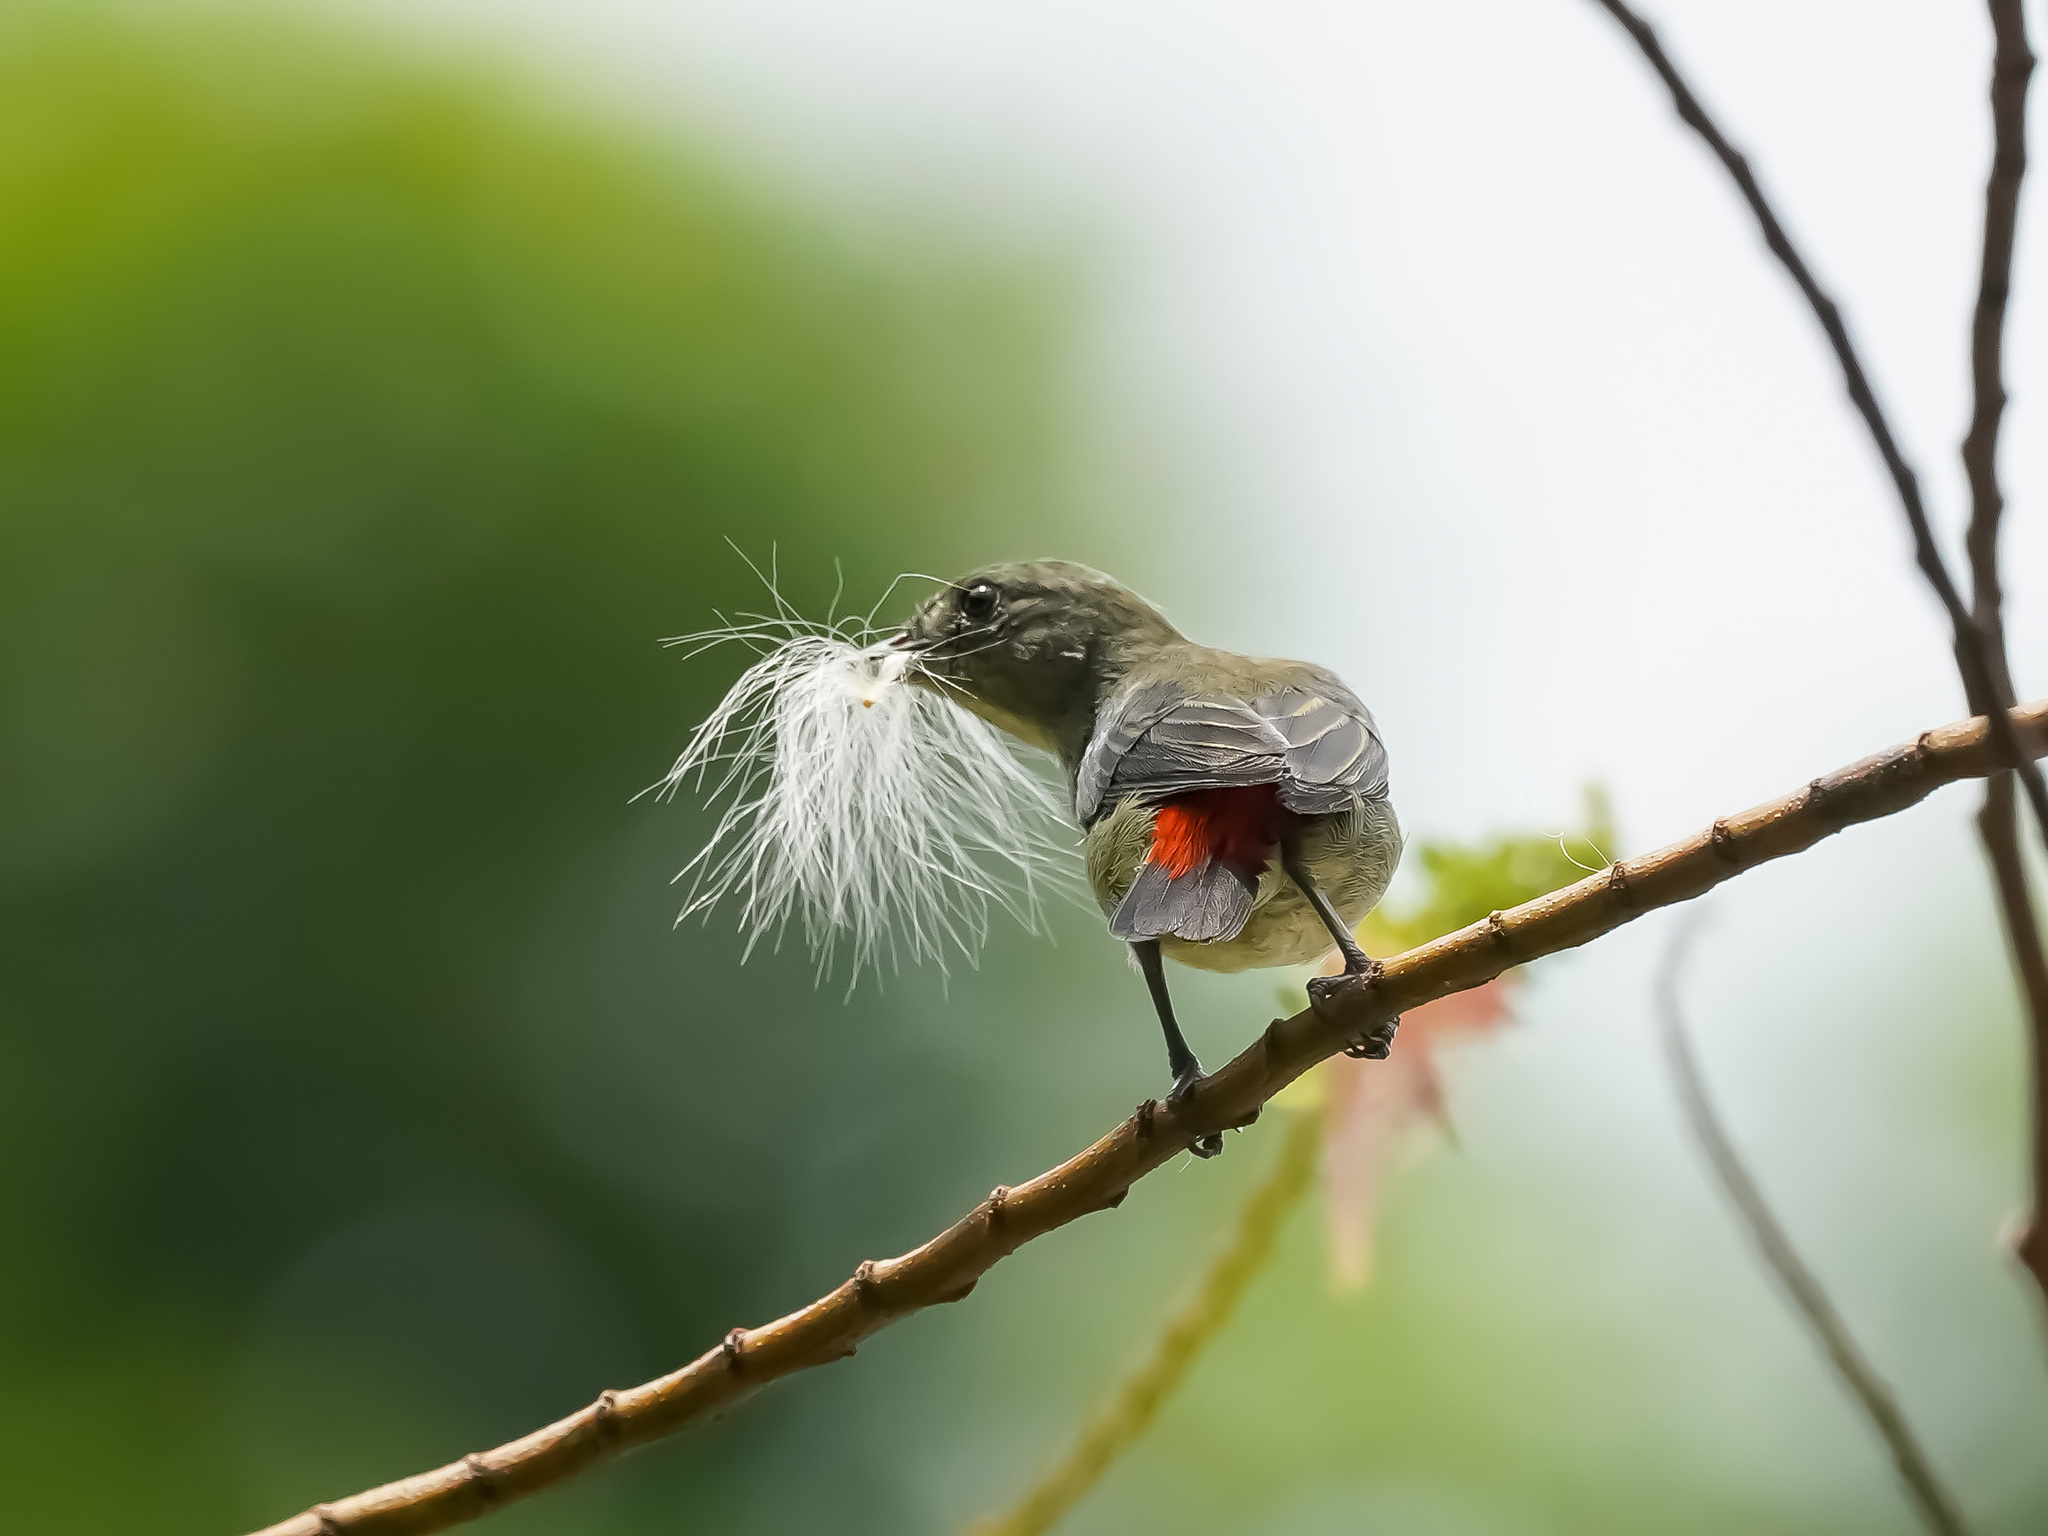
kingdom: Animalia
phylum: Chordata
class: Aves
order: Passeriformes
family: Dicaeidae
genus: Dicaeum
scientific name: Dicaeum cruentatum
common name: Scarlet-backed flowerpecker
